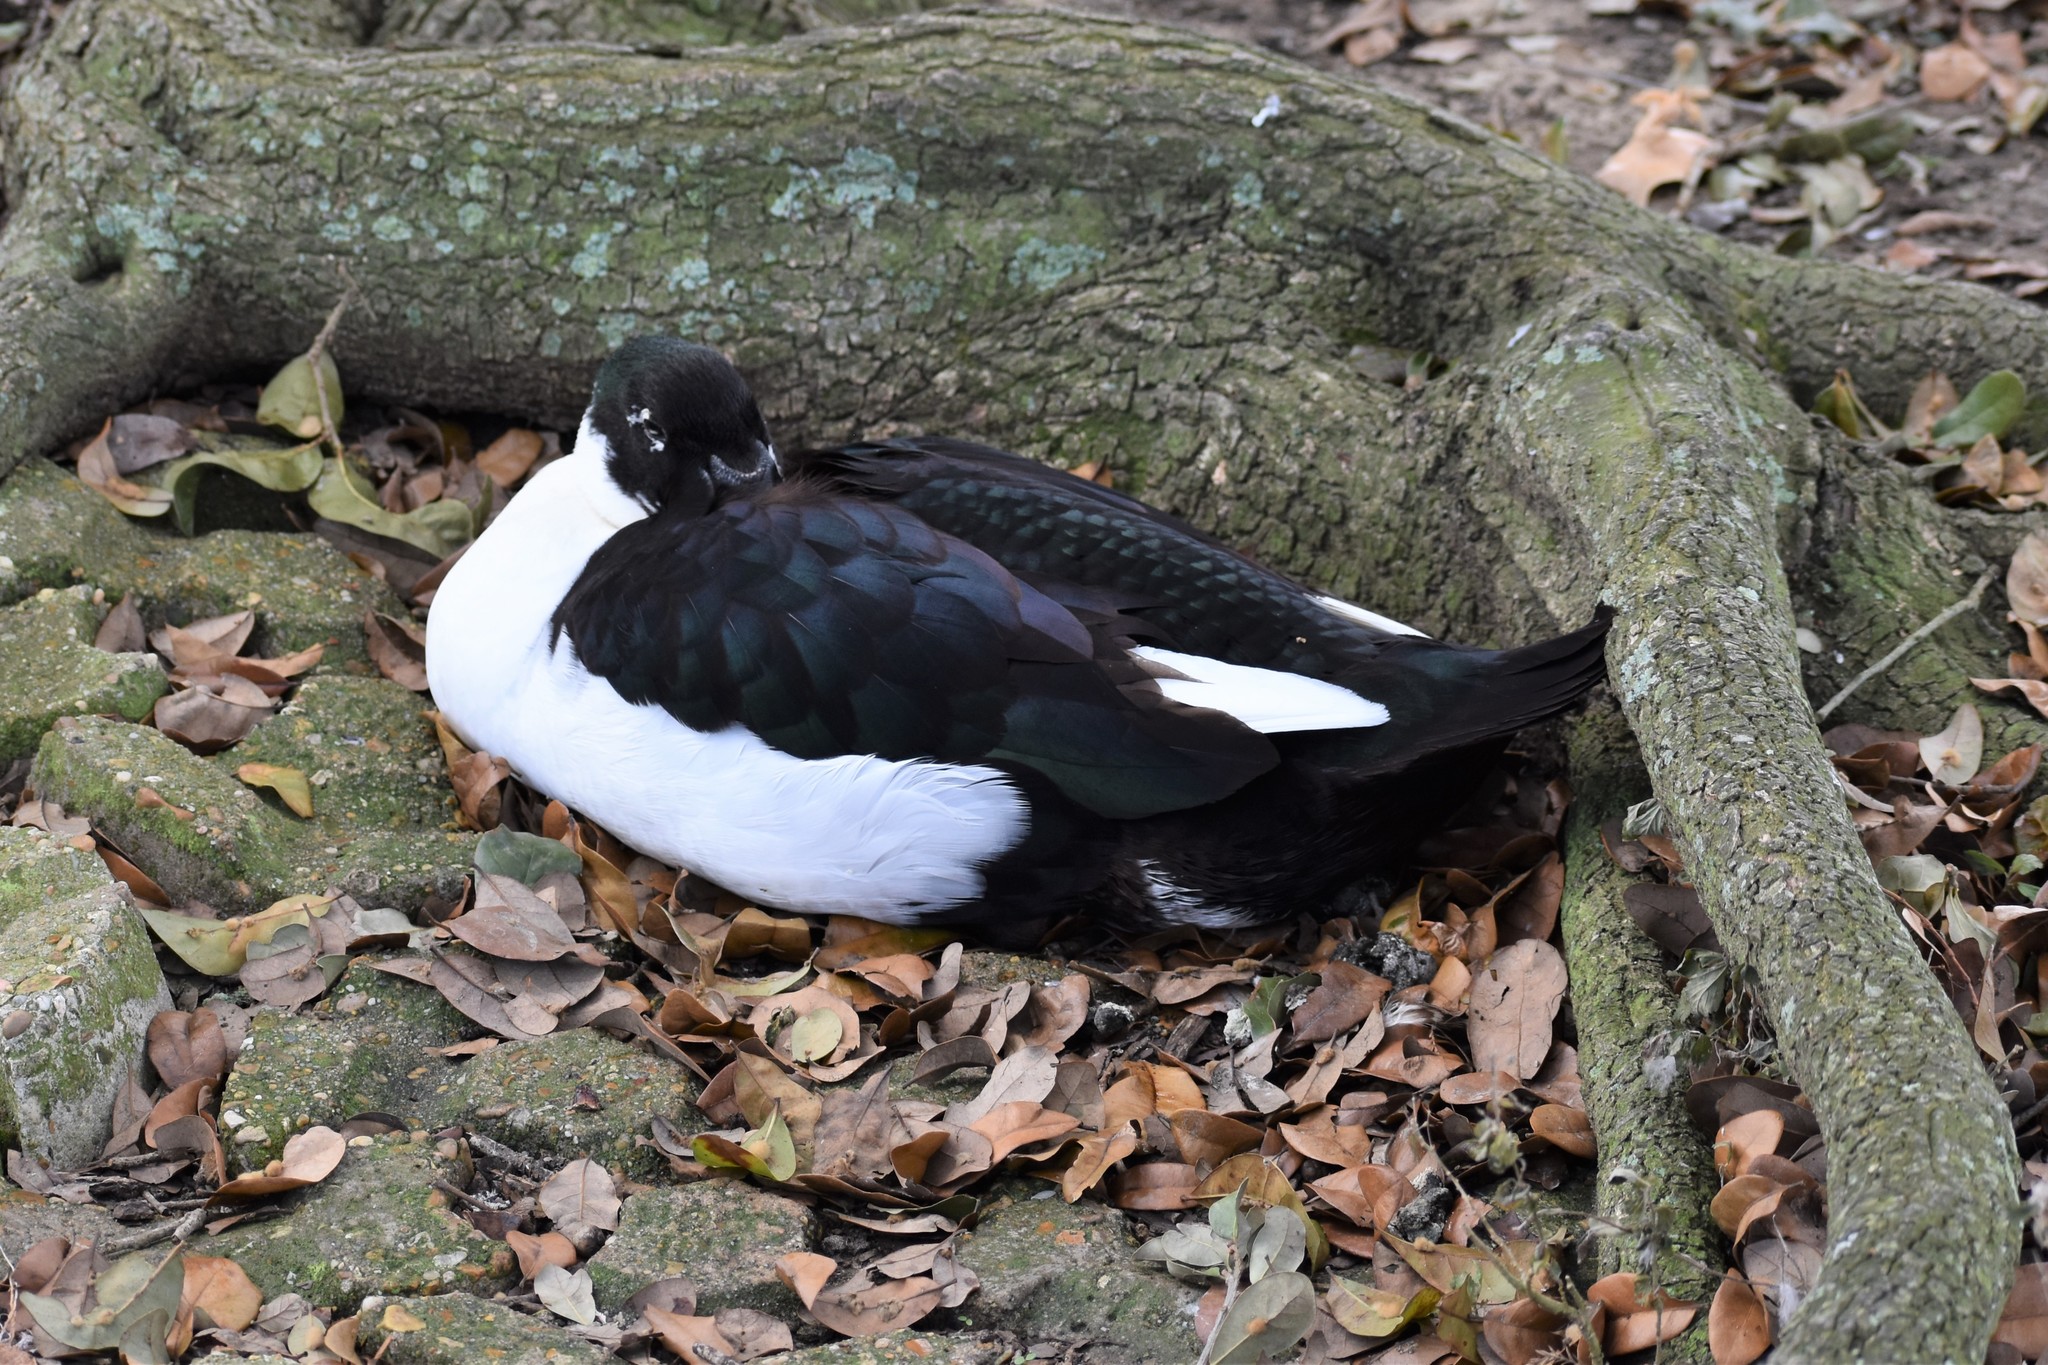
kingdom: Animalia
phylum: Chordata
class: Aves
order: Anseriformes
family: Anatidae
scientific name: Anatidae
